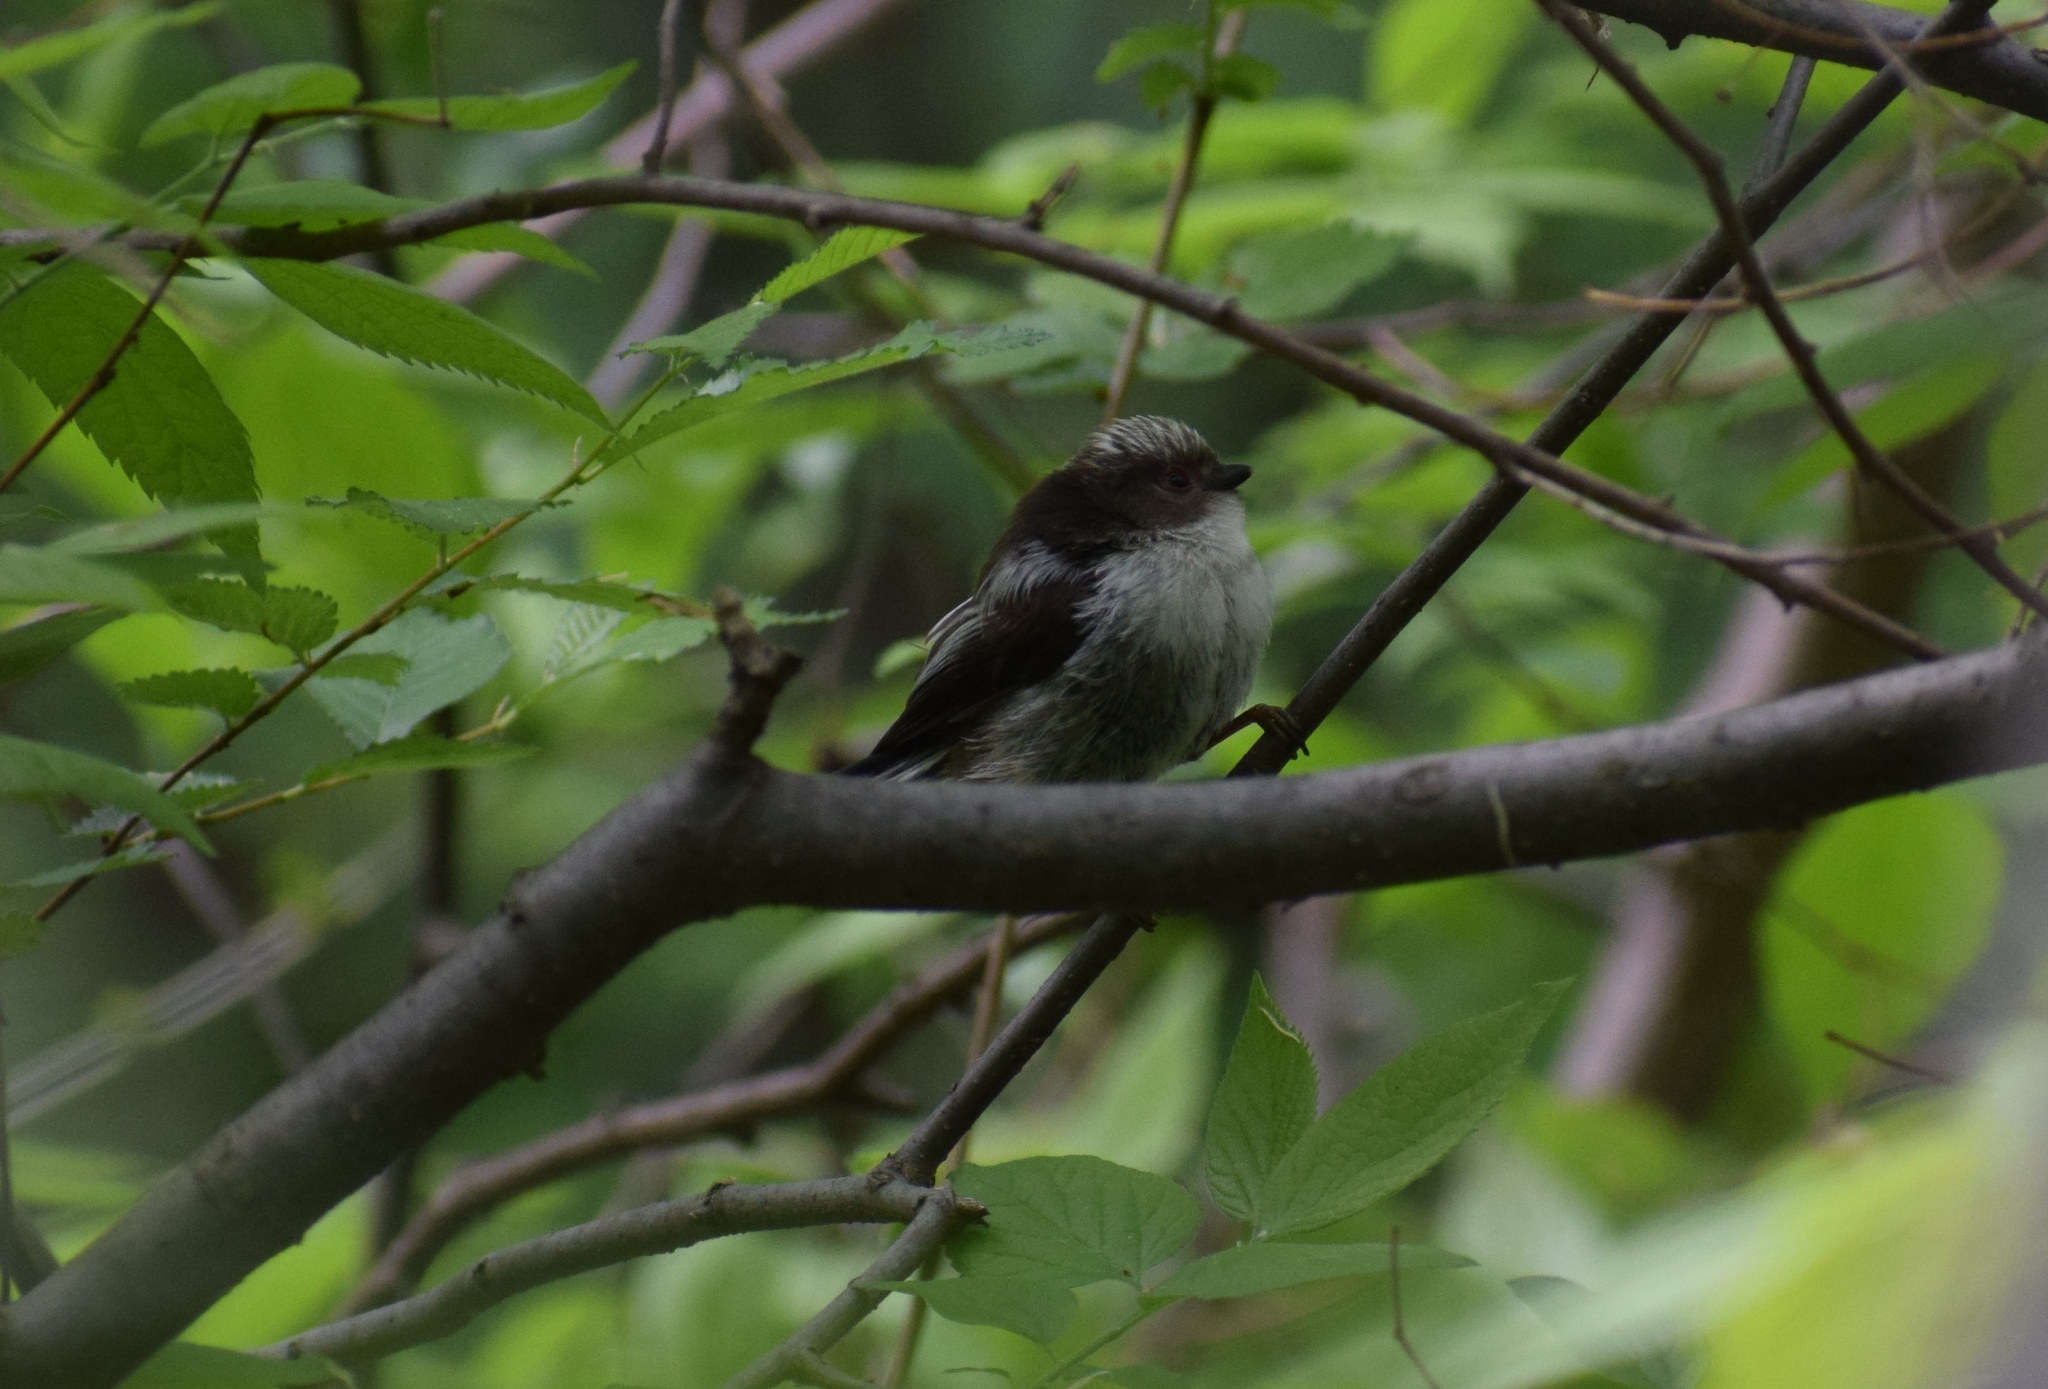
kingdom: Animalia
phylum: Chordata
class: Aves
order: Passeriformes
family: Aegithalidae
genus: Aegithalos
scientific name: Aegithalos caudatus
